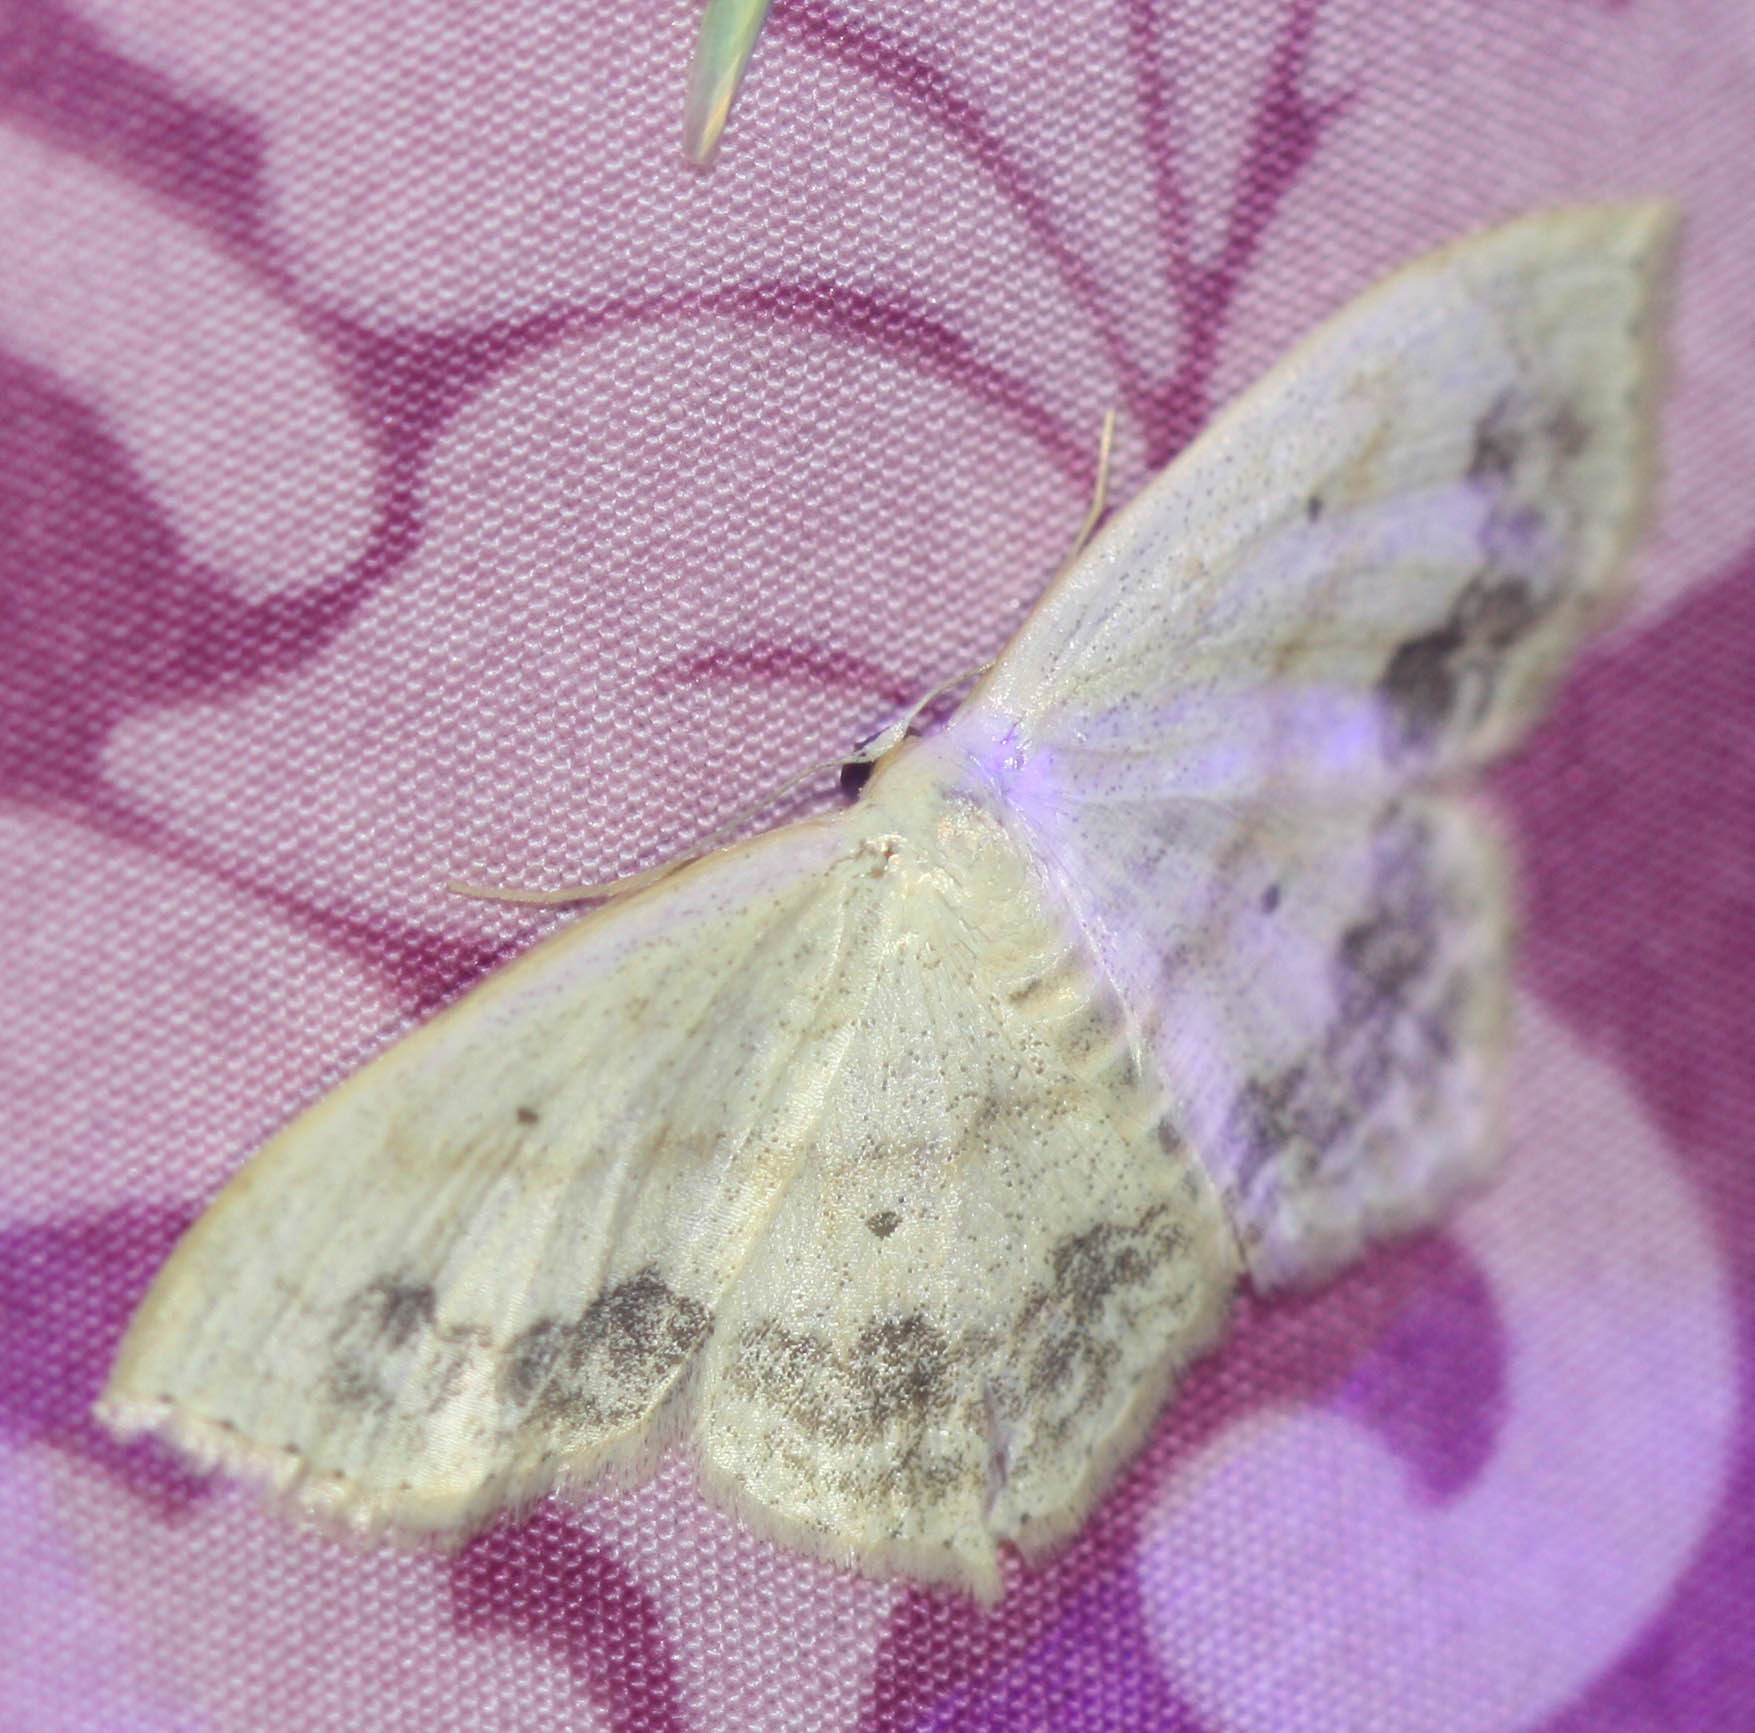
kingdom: Animalia
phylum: Arthropoda
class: Insecta
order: Lepidoptera
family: Geometridae
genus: Scopula
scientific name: Scopula limboundata
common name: Large lace border
